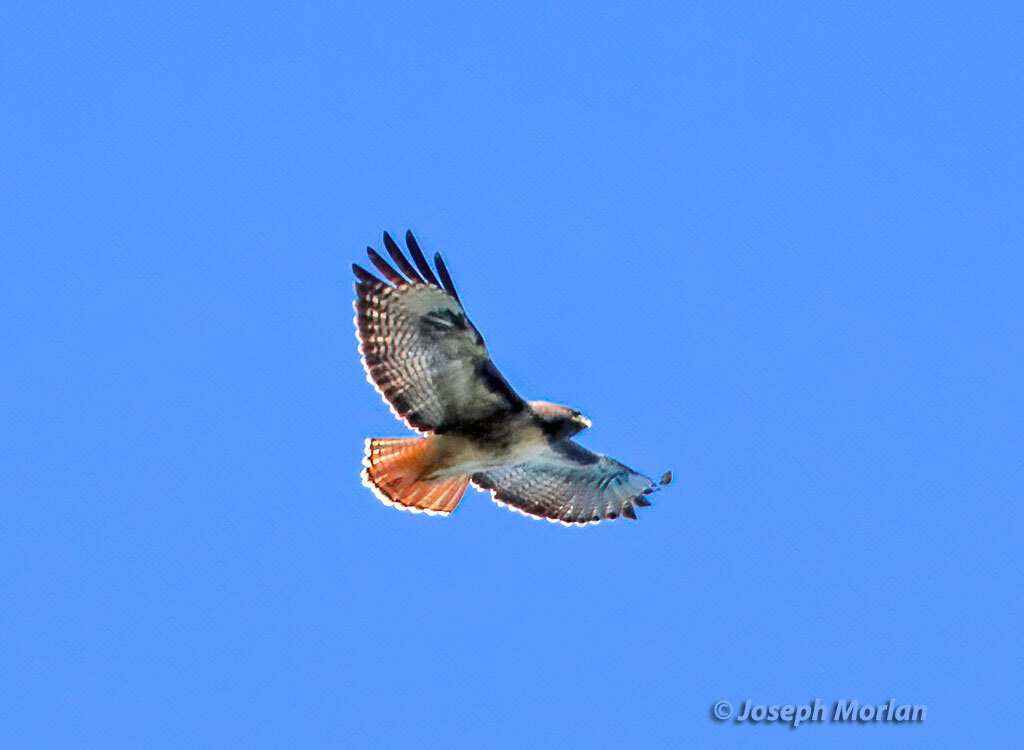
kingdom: Animalia
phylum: Chordata
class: Aves
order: Accipitriformes
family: Accipitridae
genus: Buteo
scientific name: Buteo jamaicensis
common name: Red-tailed hawk
